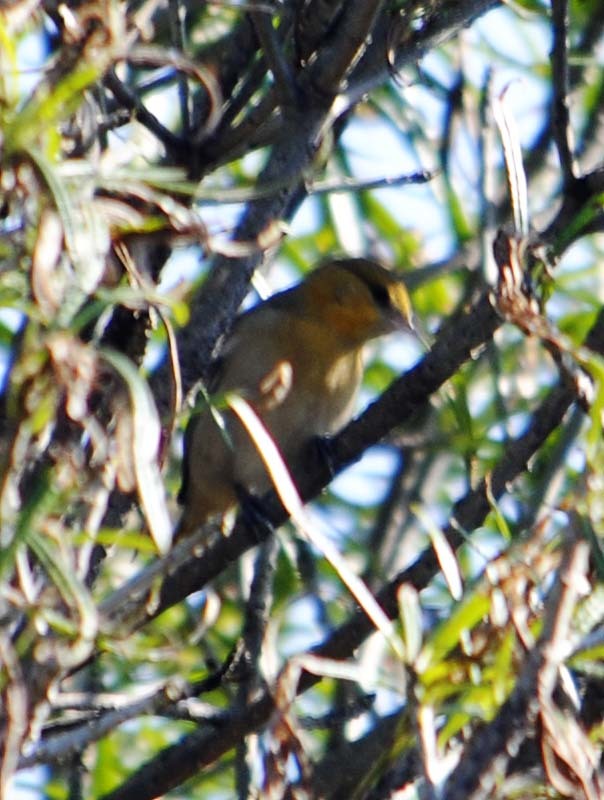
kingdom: Animalia
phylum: Chordata
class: Aves
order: Passeriformes
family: Icteridae
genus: Icterus
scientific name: Icterus bullockii
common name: Bullock's oriole
